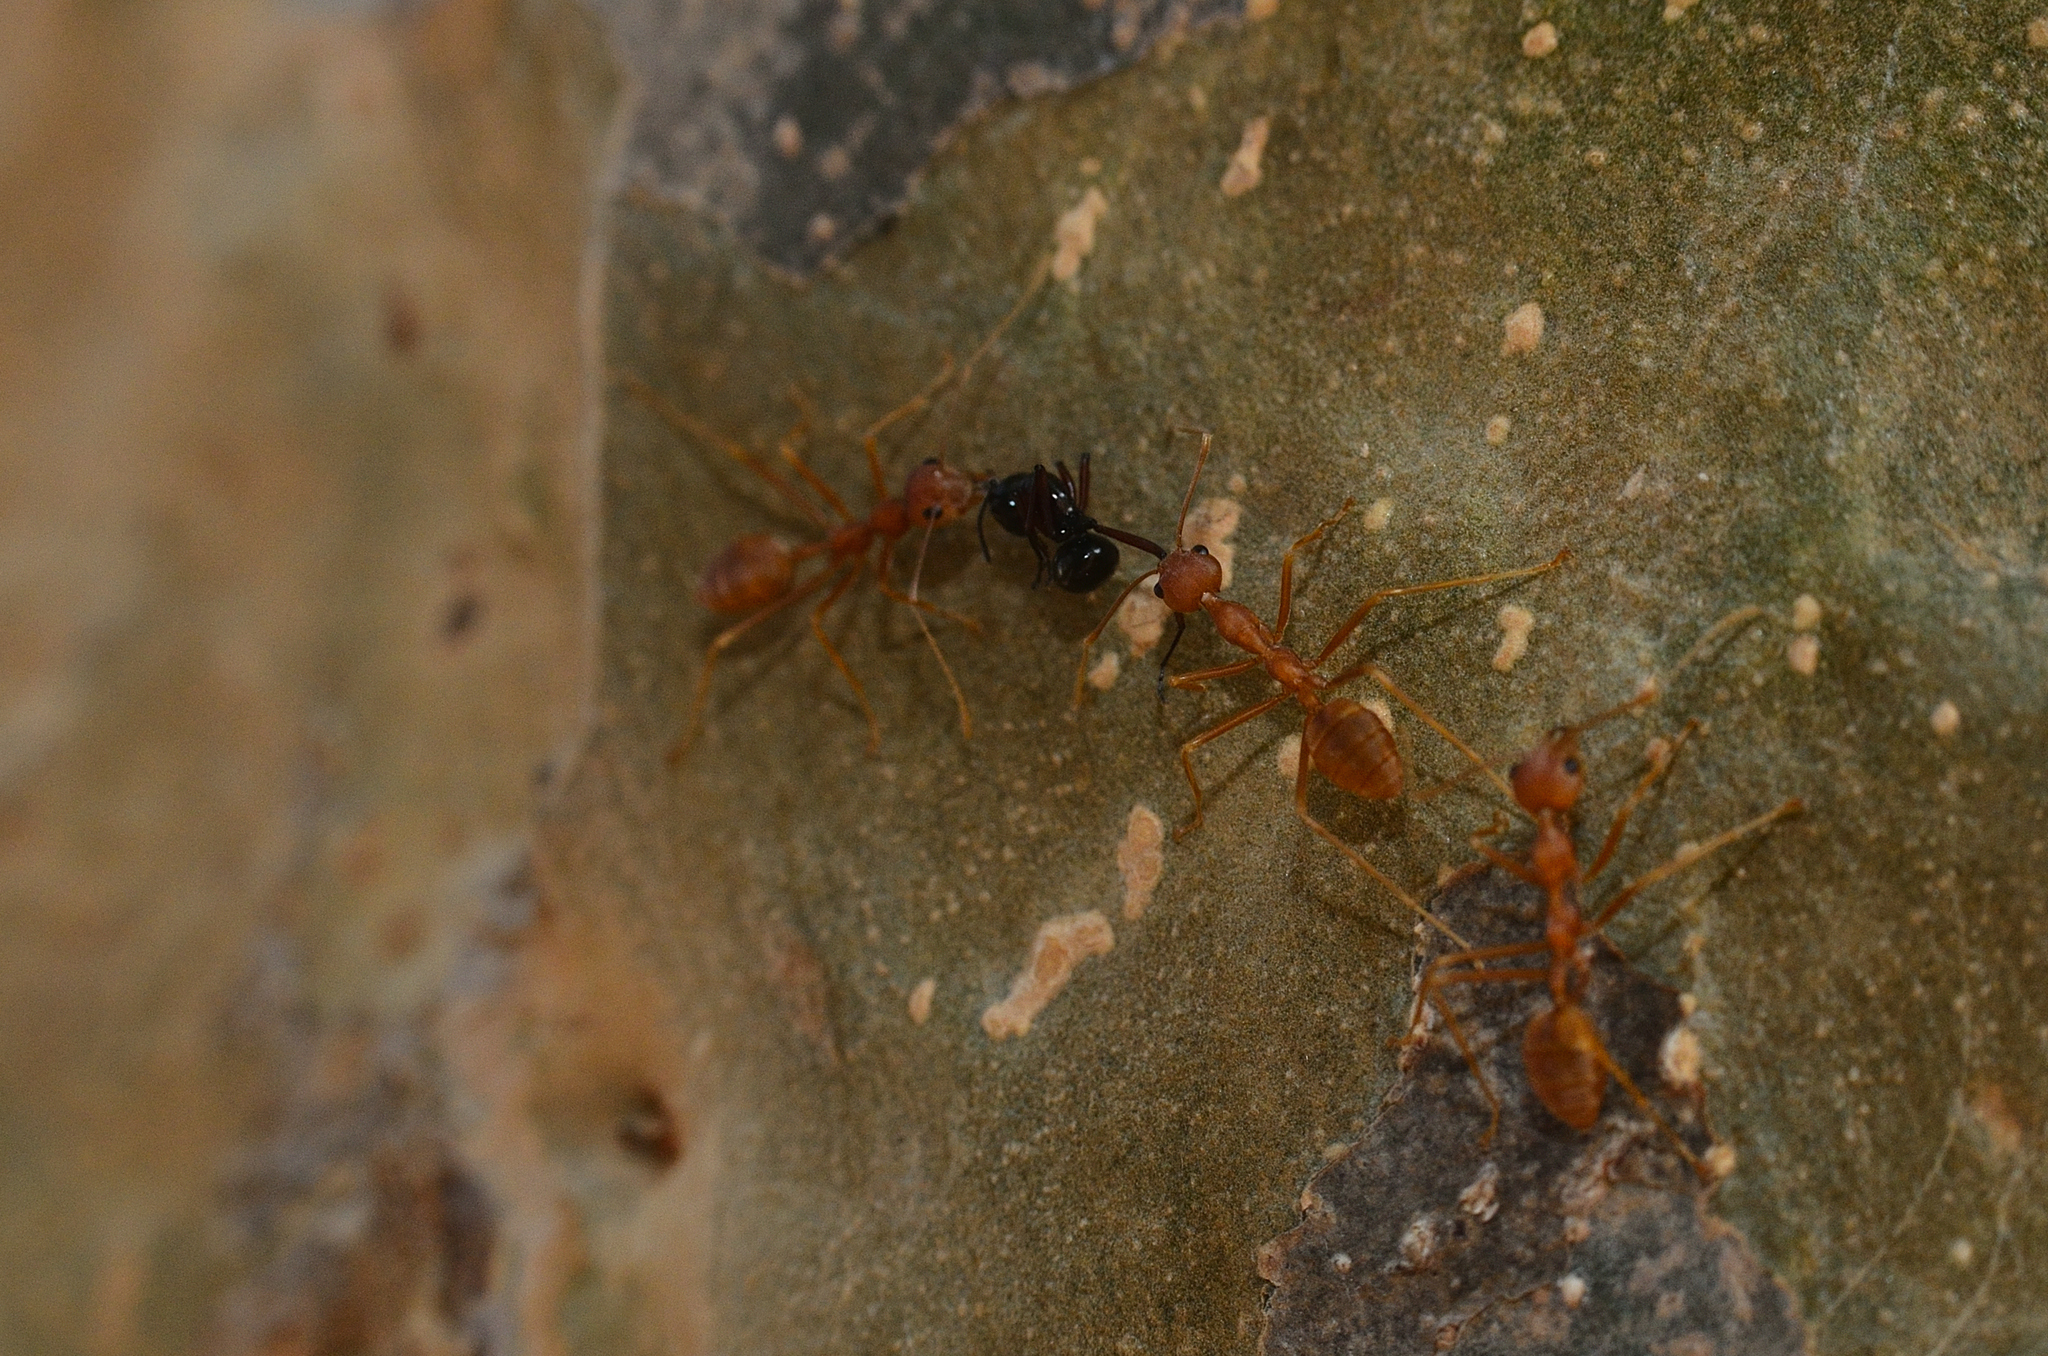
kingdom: Animalia
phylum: Arthropoda
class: Insecta
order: Hymenoptera
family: Formicidae
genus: Oecophylla
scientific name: Oecophylla smaragdina
